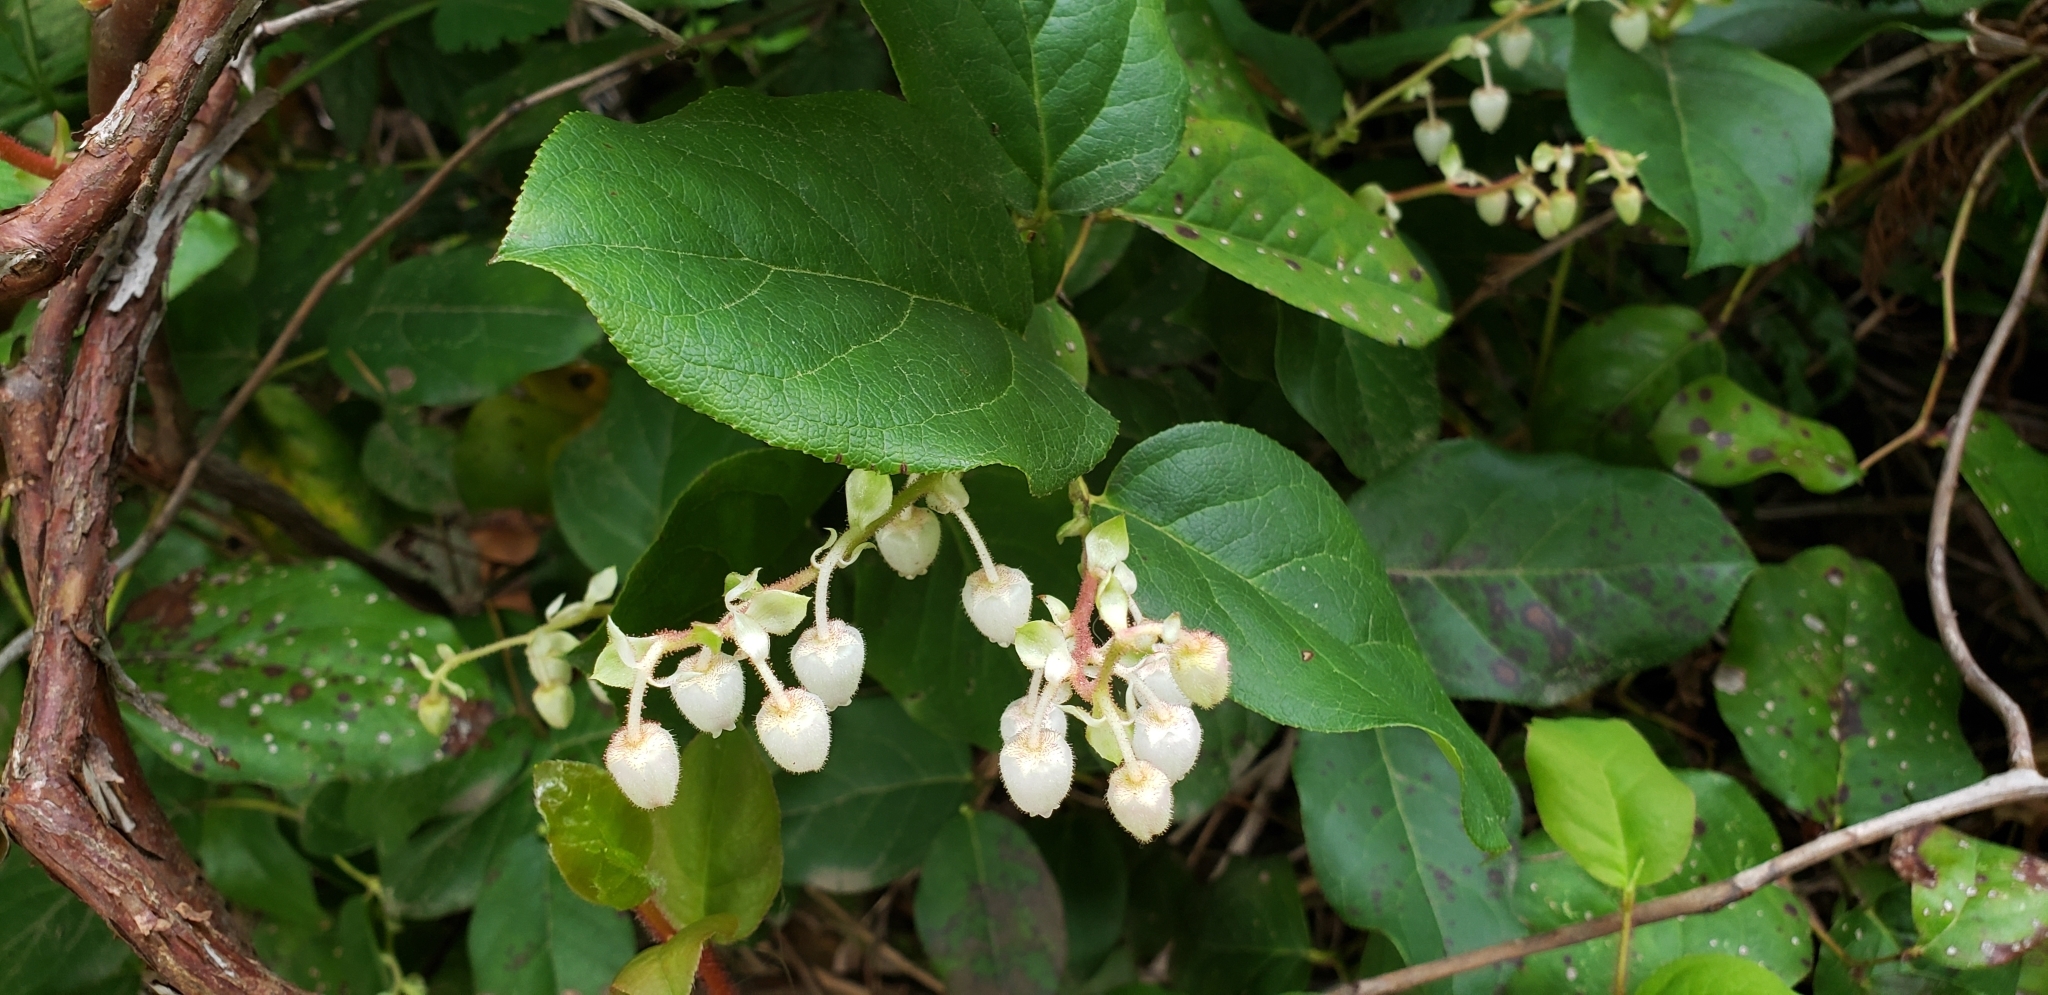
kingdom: Plantae
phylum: Tracheophyta
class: Magnoliopsida
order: Ericales
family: Ericaceae
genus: Gaultheria
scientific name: Gaultheria shallon
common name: Shallon
